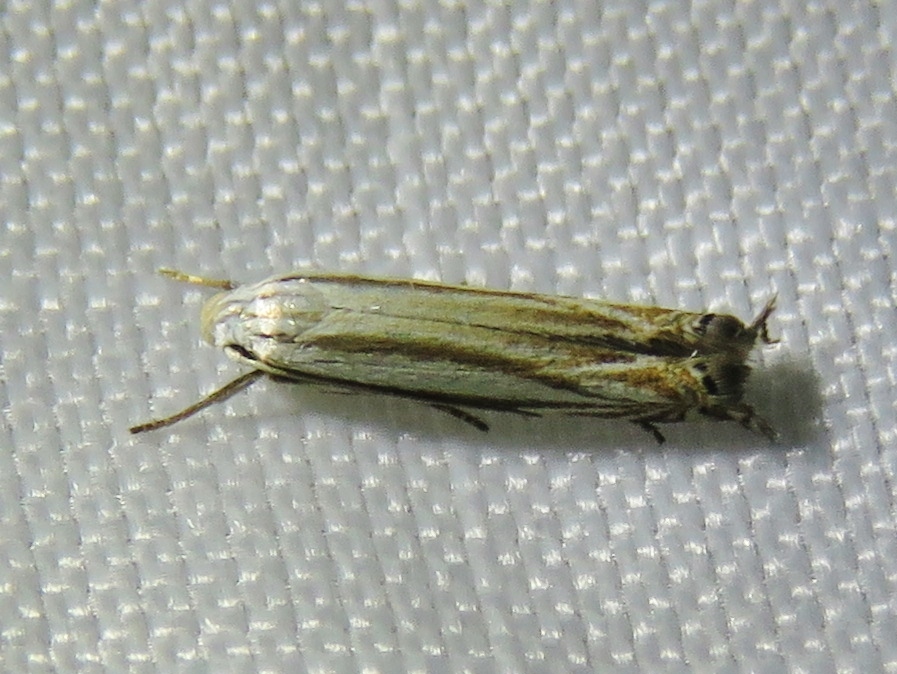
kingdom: Animalia
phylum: Arthropoda
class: Insecta
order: Lepidoptera
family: Gelechiidae
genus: Polyhymno
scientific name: Polyhymno luteostrigella
